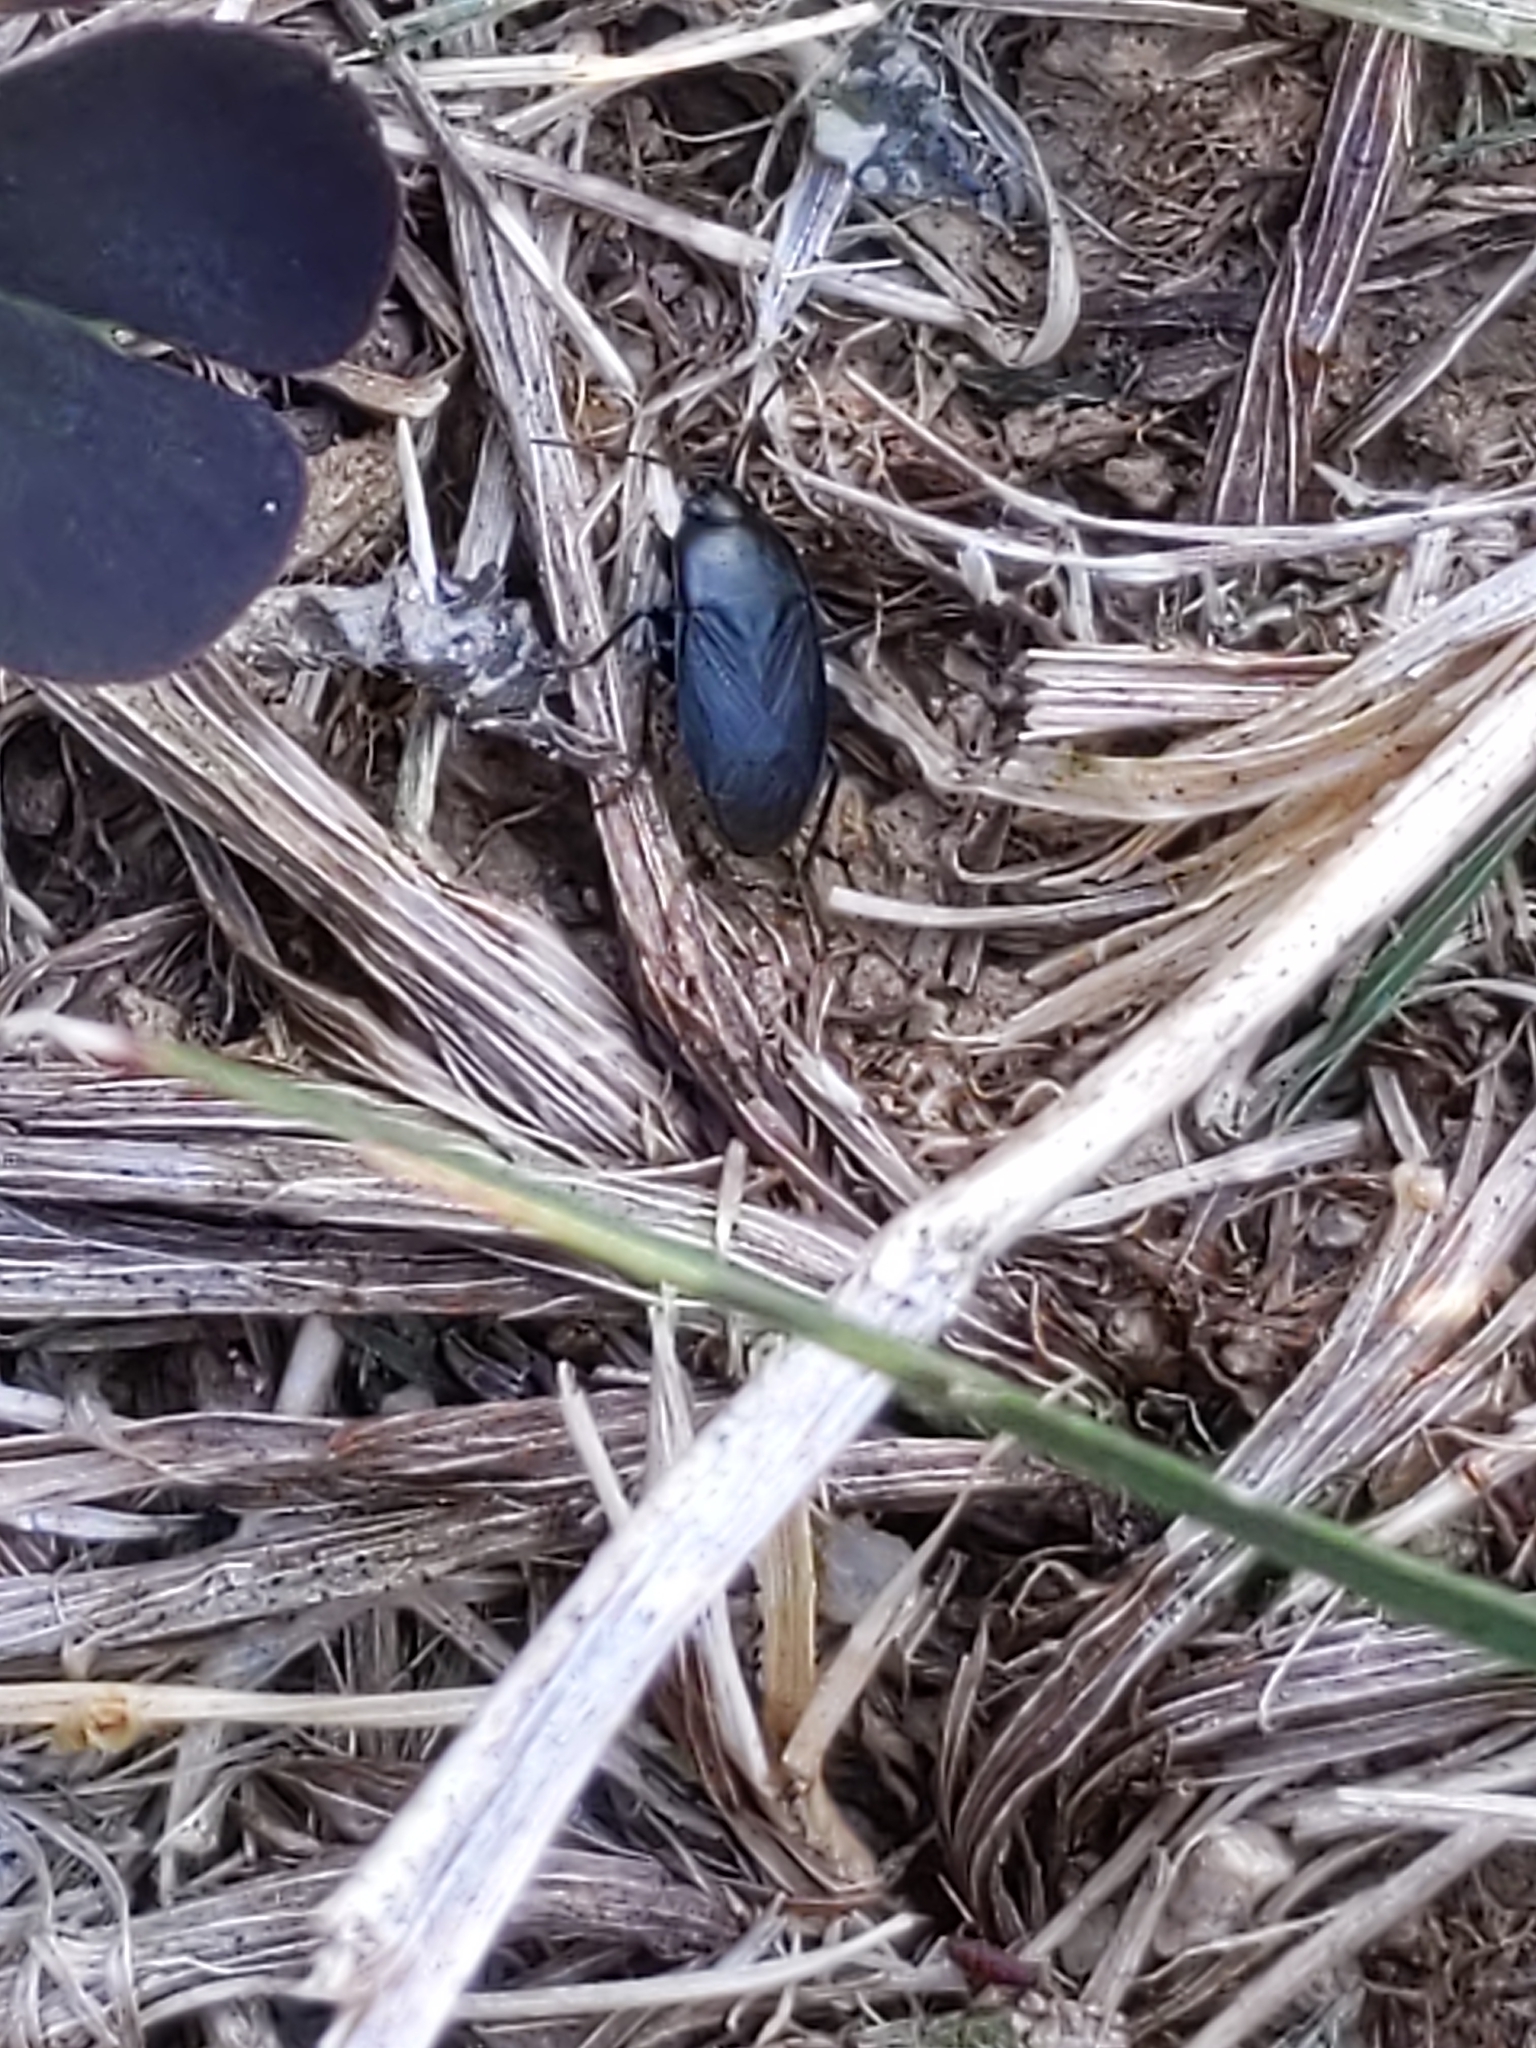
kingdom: Animalia
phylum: Arthropoda
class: Insecta
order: Hemiptera
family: Rhyparochromidae
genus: Atrazonotus
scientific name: Atrazonotus umbrosus
